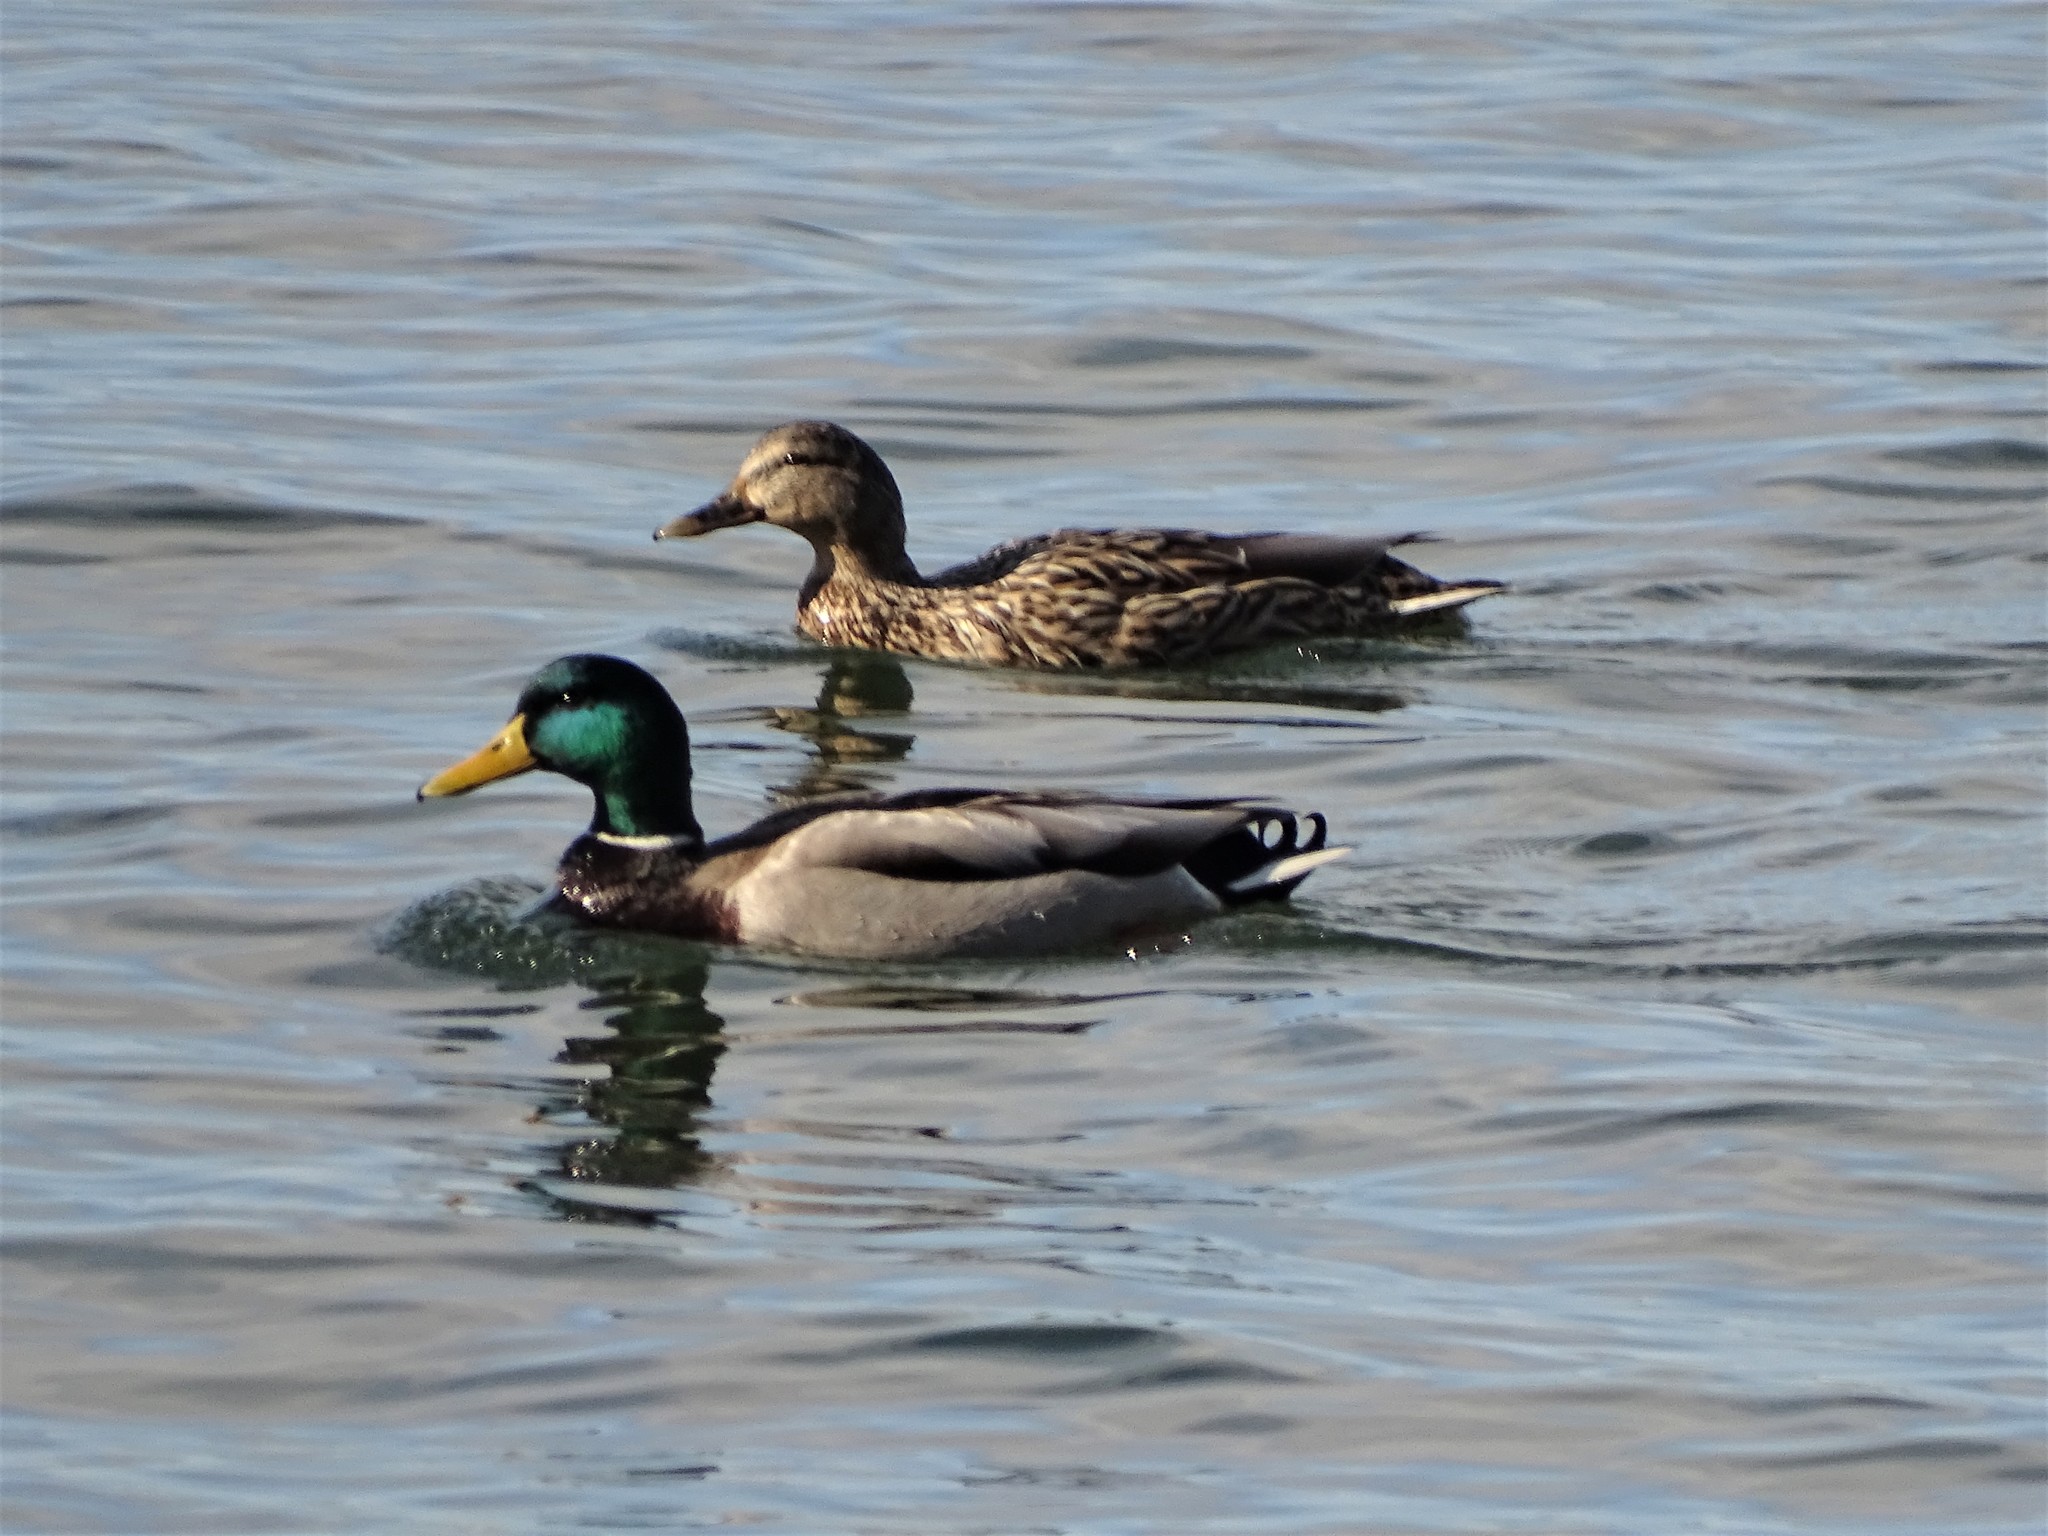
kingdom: Animalia
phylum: Chordata
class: Aves
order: Anseriformes
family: Anatidae
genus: Anas
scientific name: Anas platyrhynchos
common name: Mallard
